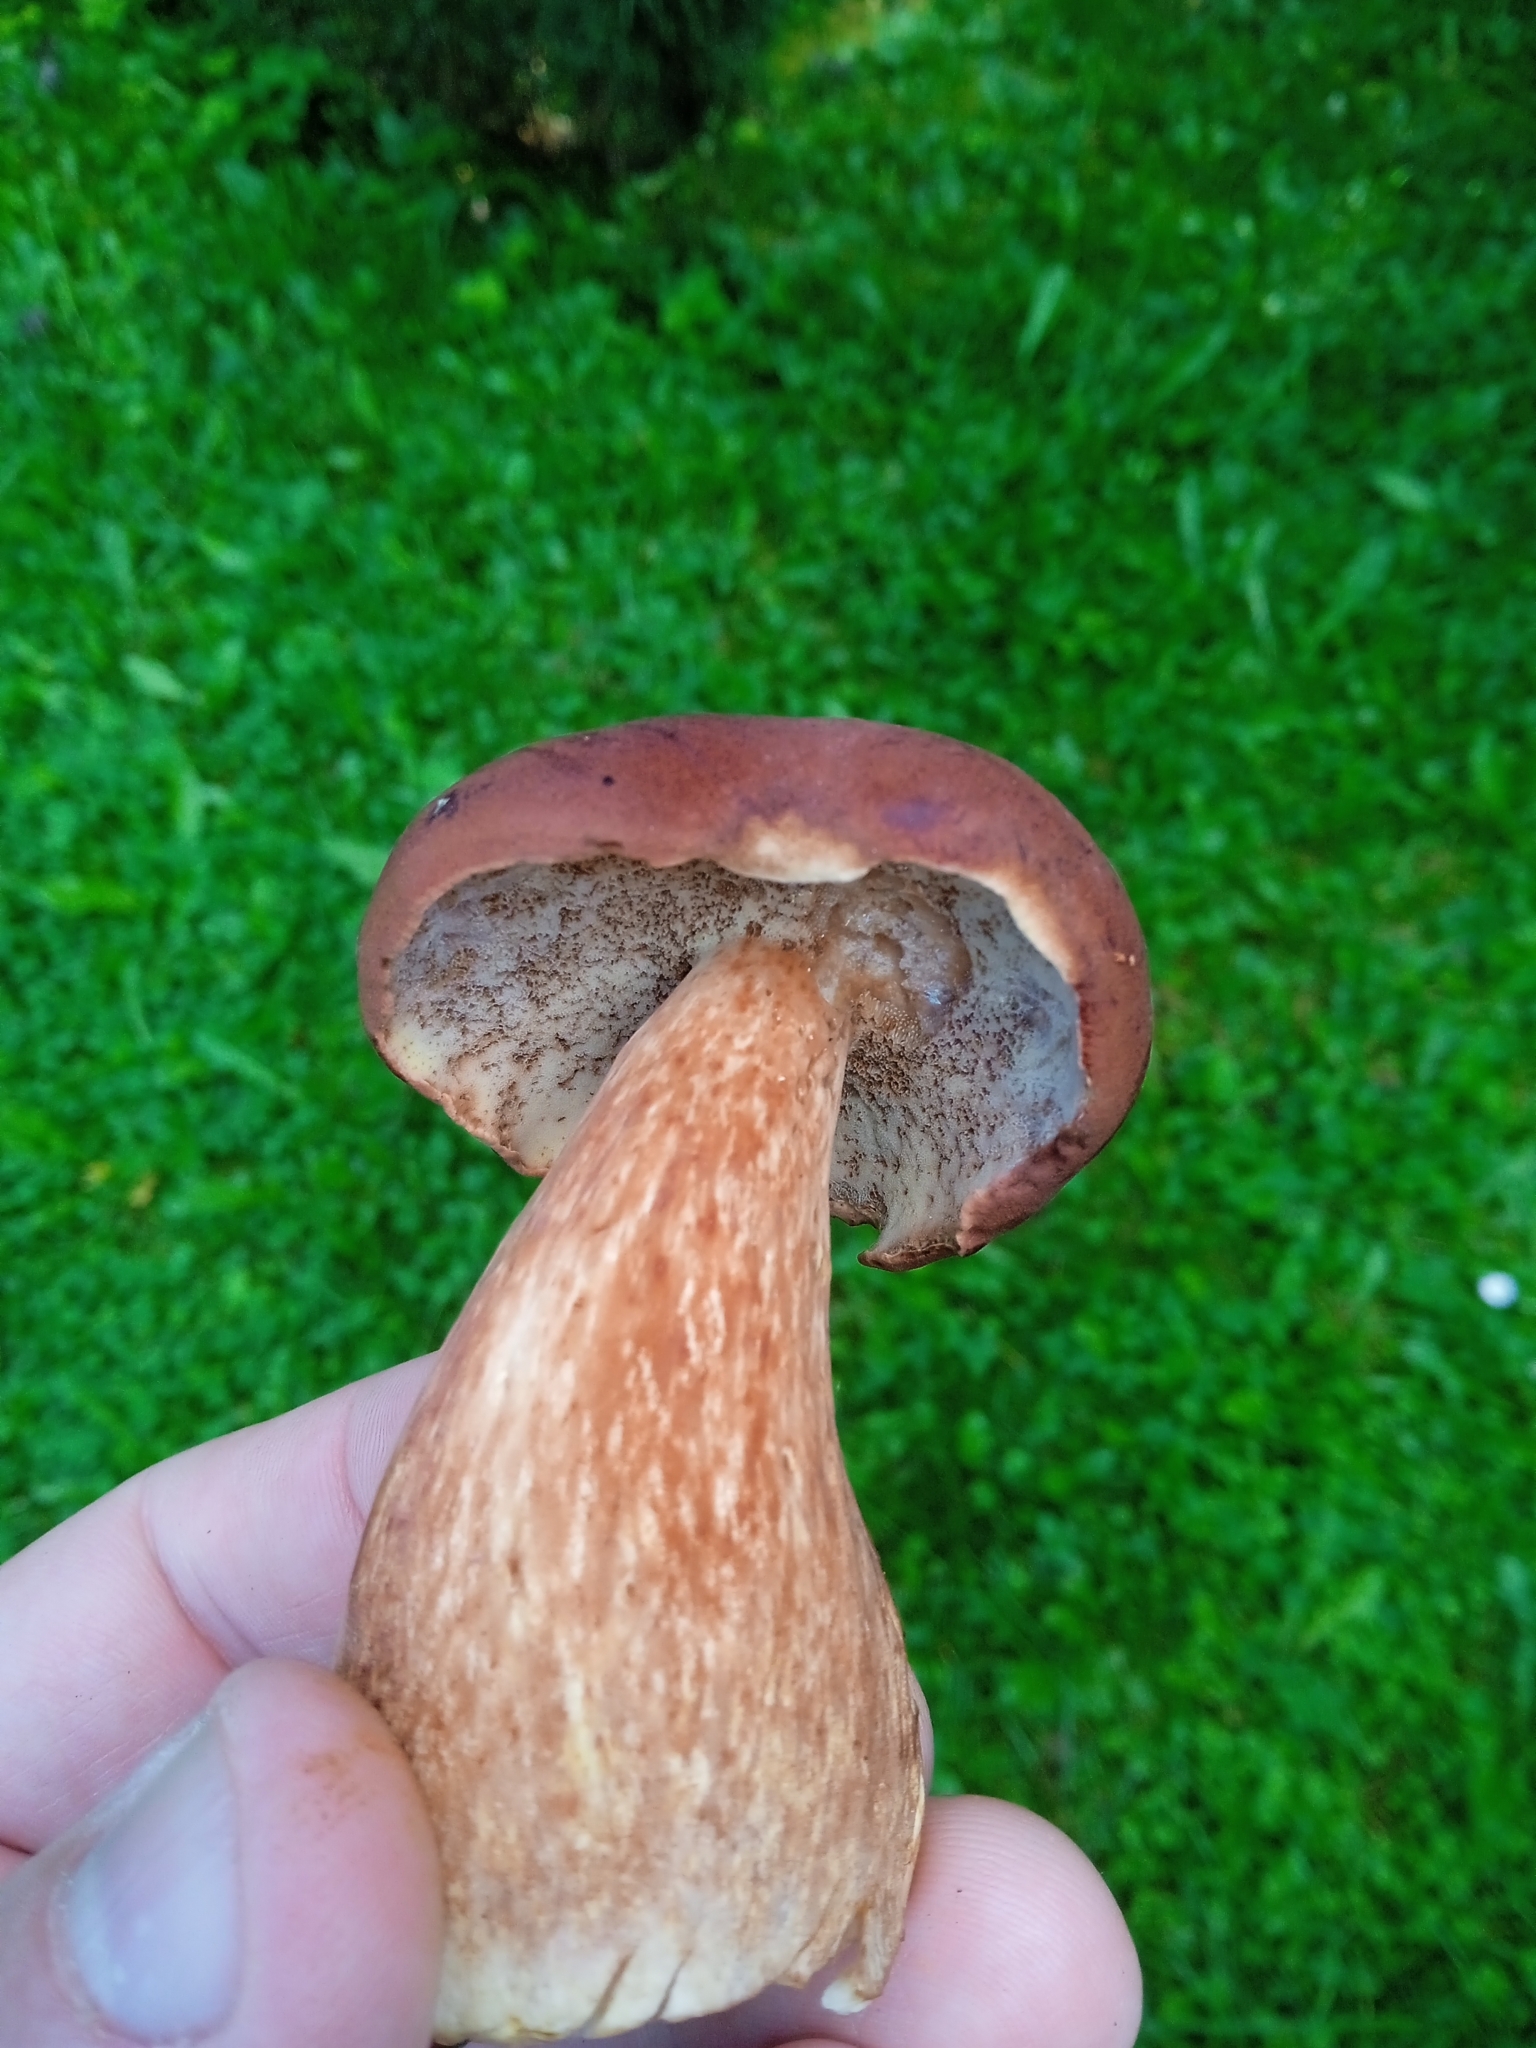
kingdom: Fungi
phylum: Basidiomycota
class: Agaricomycetes
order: Boletales
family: Boletaceae
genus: Imleria
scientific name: Imleria badia
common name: Bay bolete
